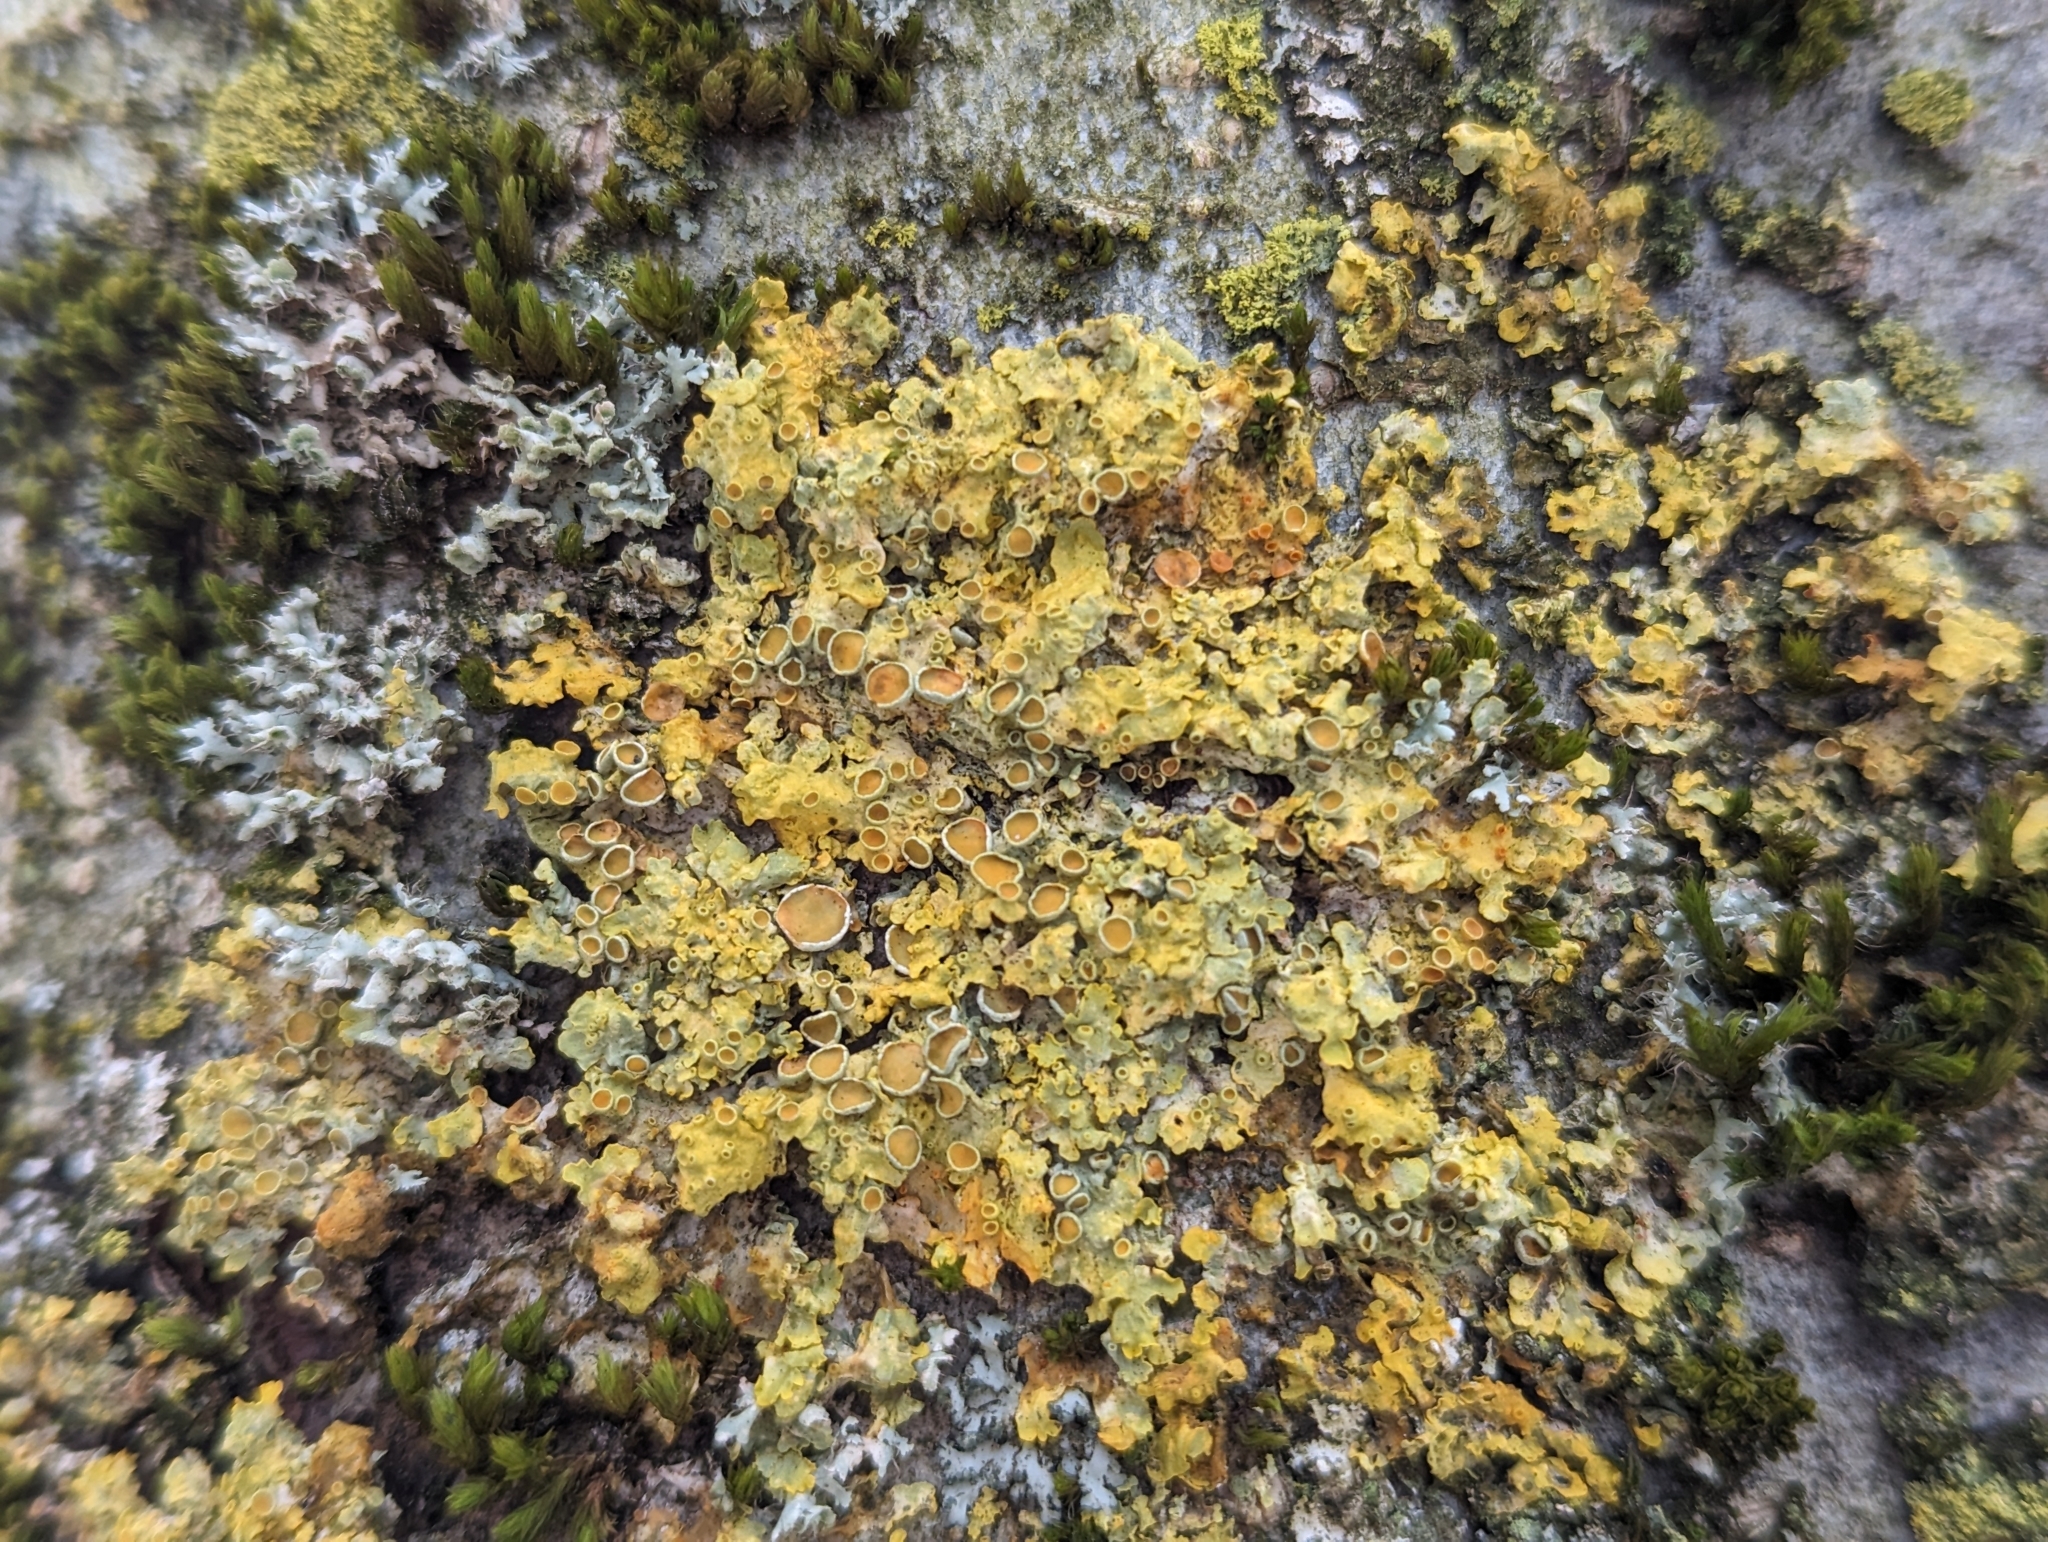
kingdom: Fungi
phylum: Ascomycota
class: Lecanoromycetes
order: Teloschistales
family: Teloschistaceae
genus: Xanthoria
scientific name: Xanthoria parietina
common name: Common orange lichen
